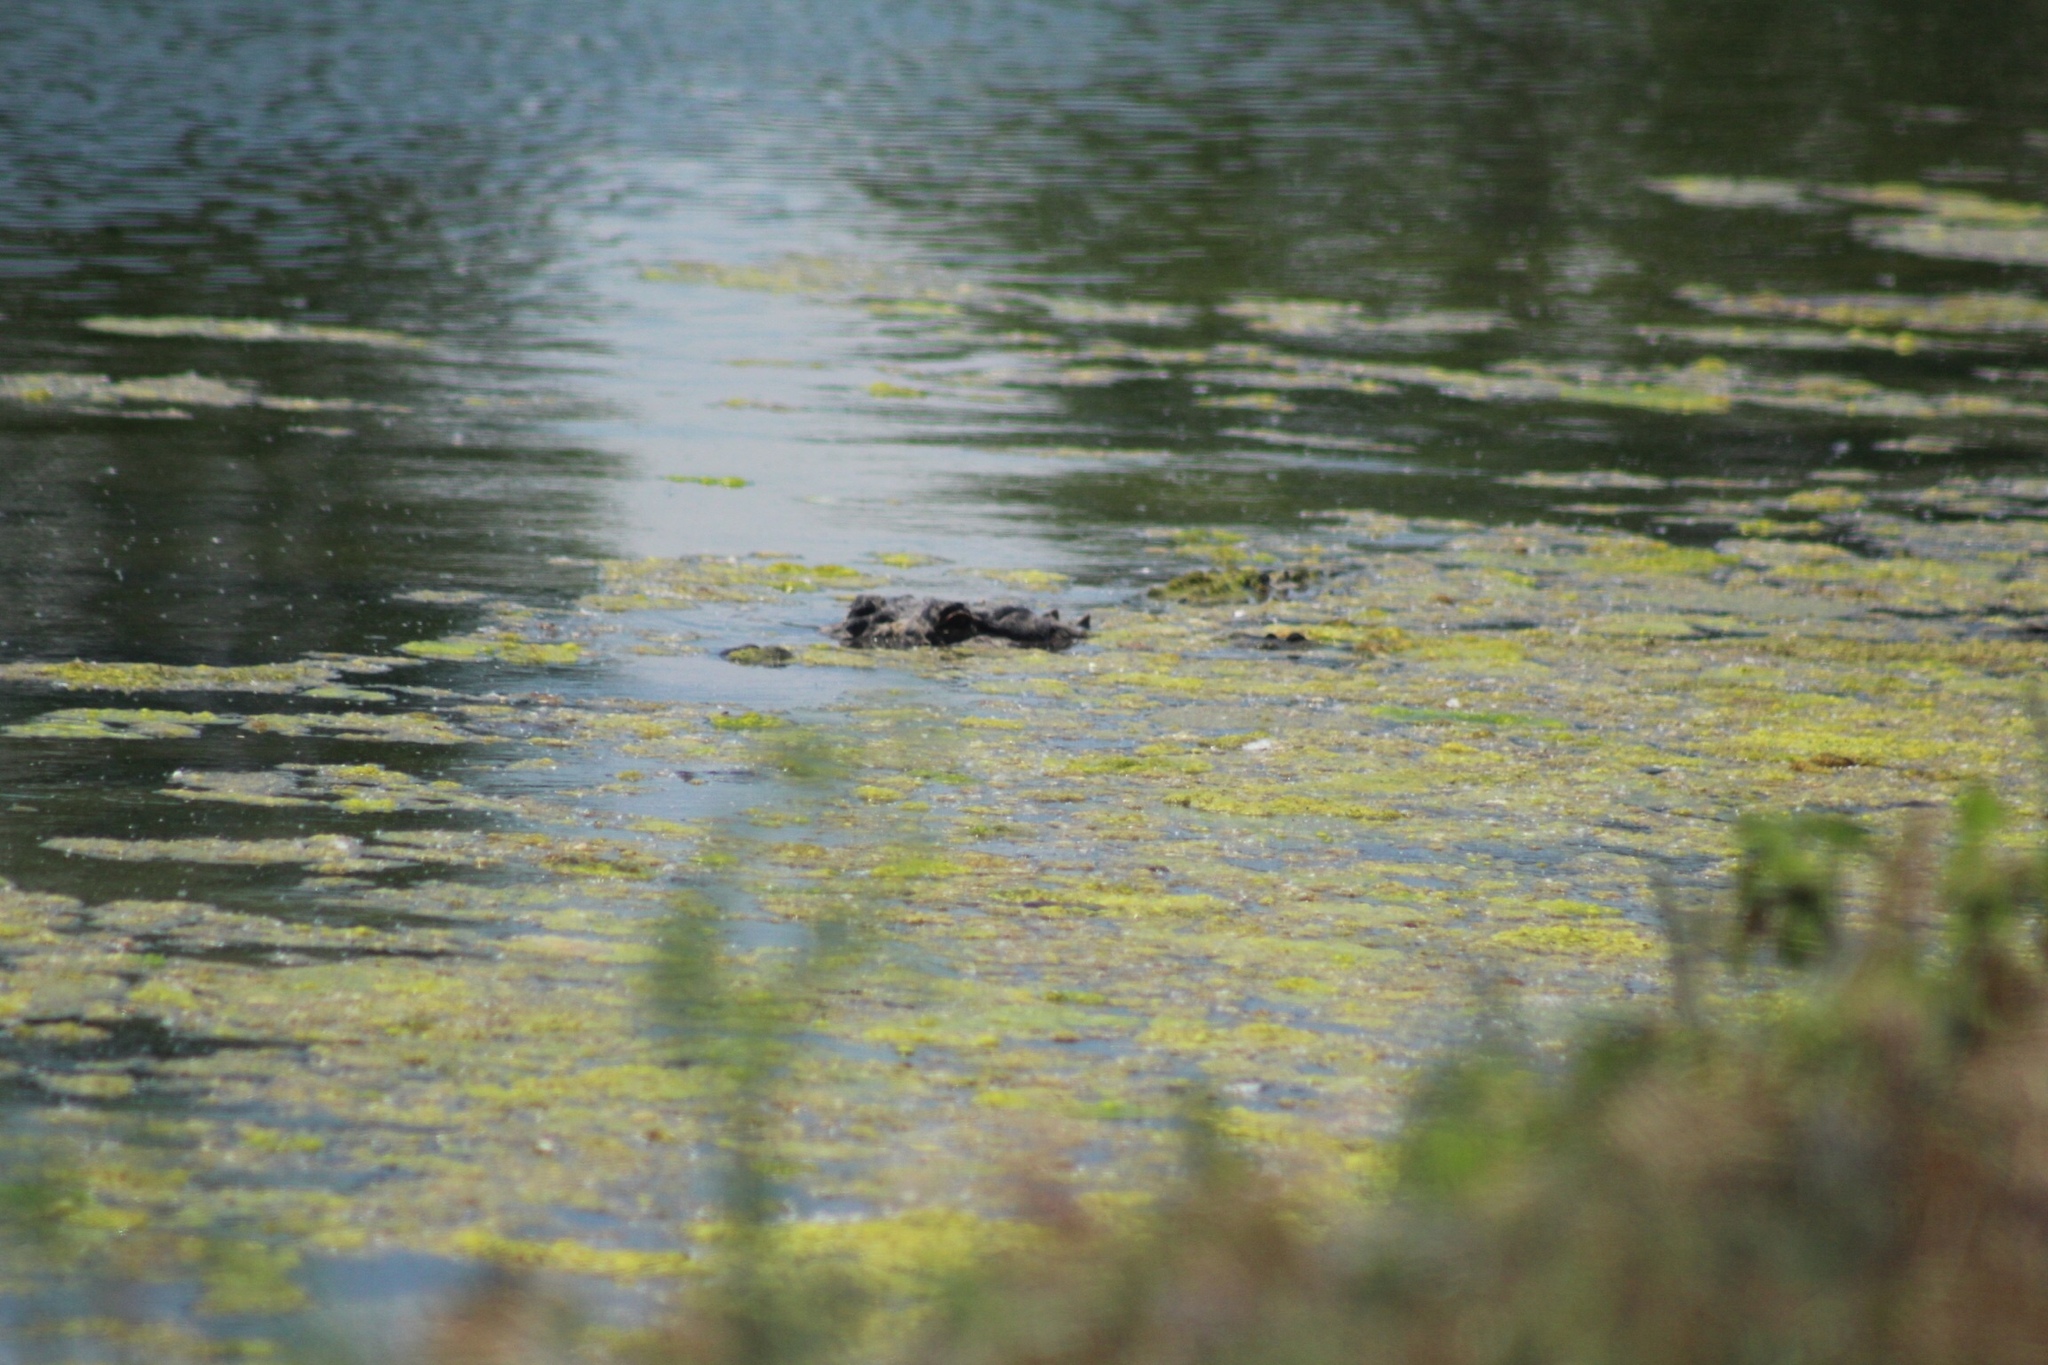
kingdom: Animalia
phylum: Chordata
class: Crocodylia
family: Alligatoridae
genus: Alligator
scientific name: Alligator mississippiensis
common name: American alligator
